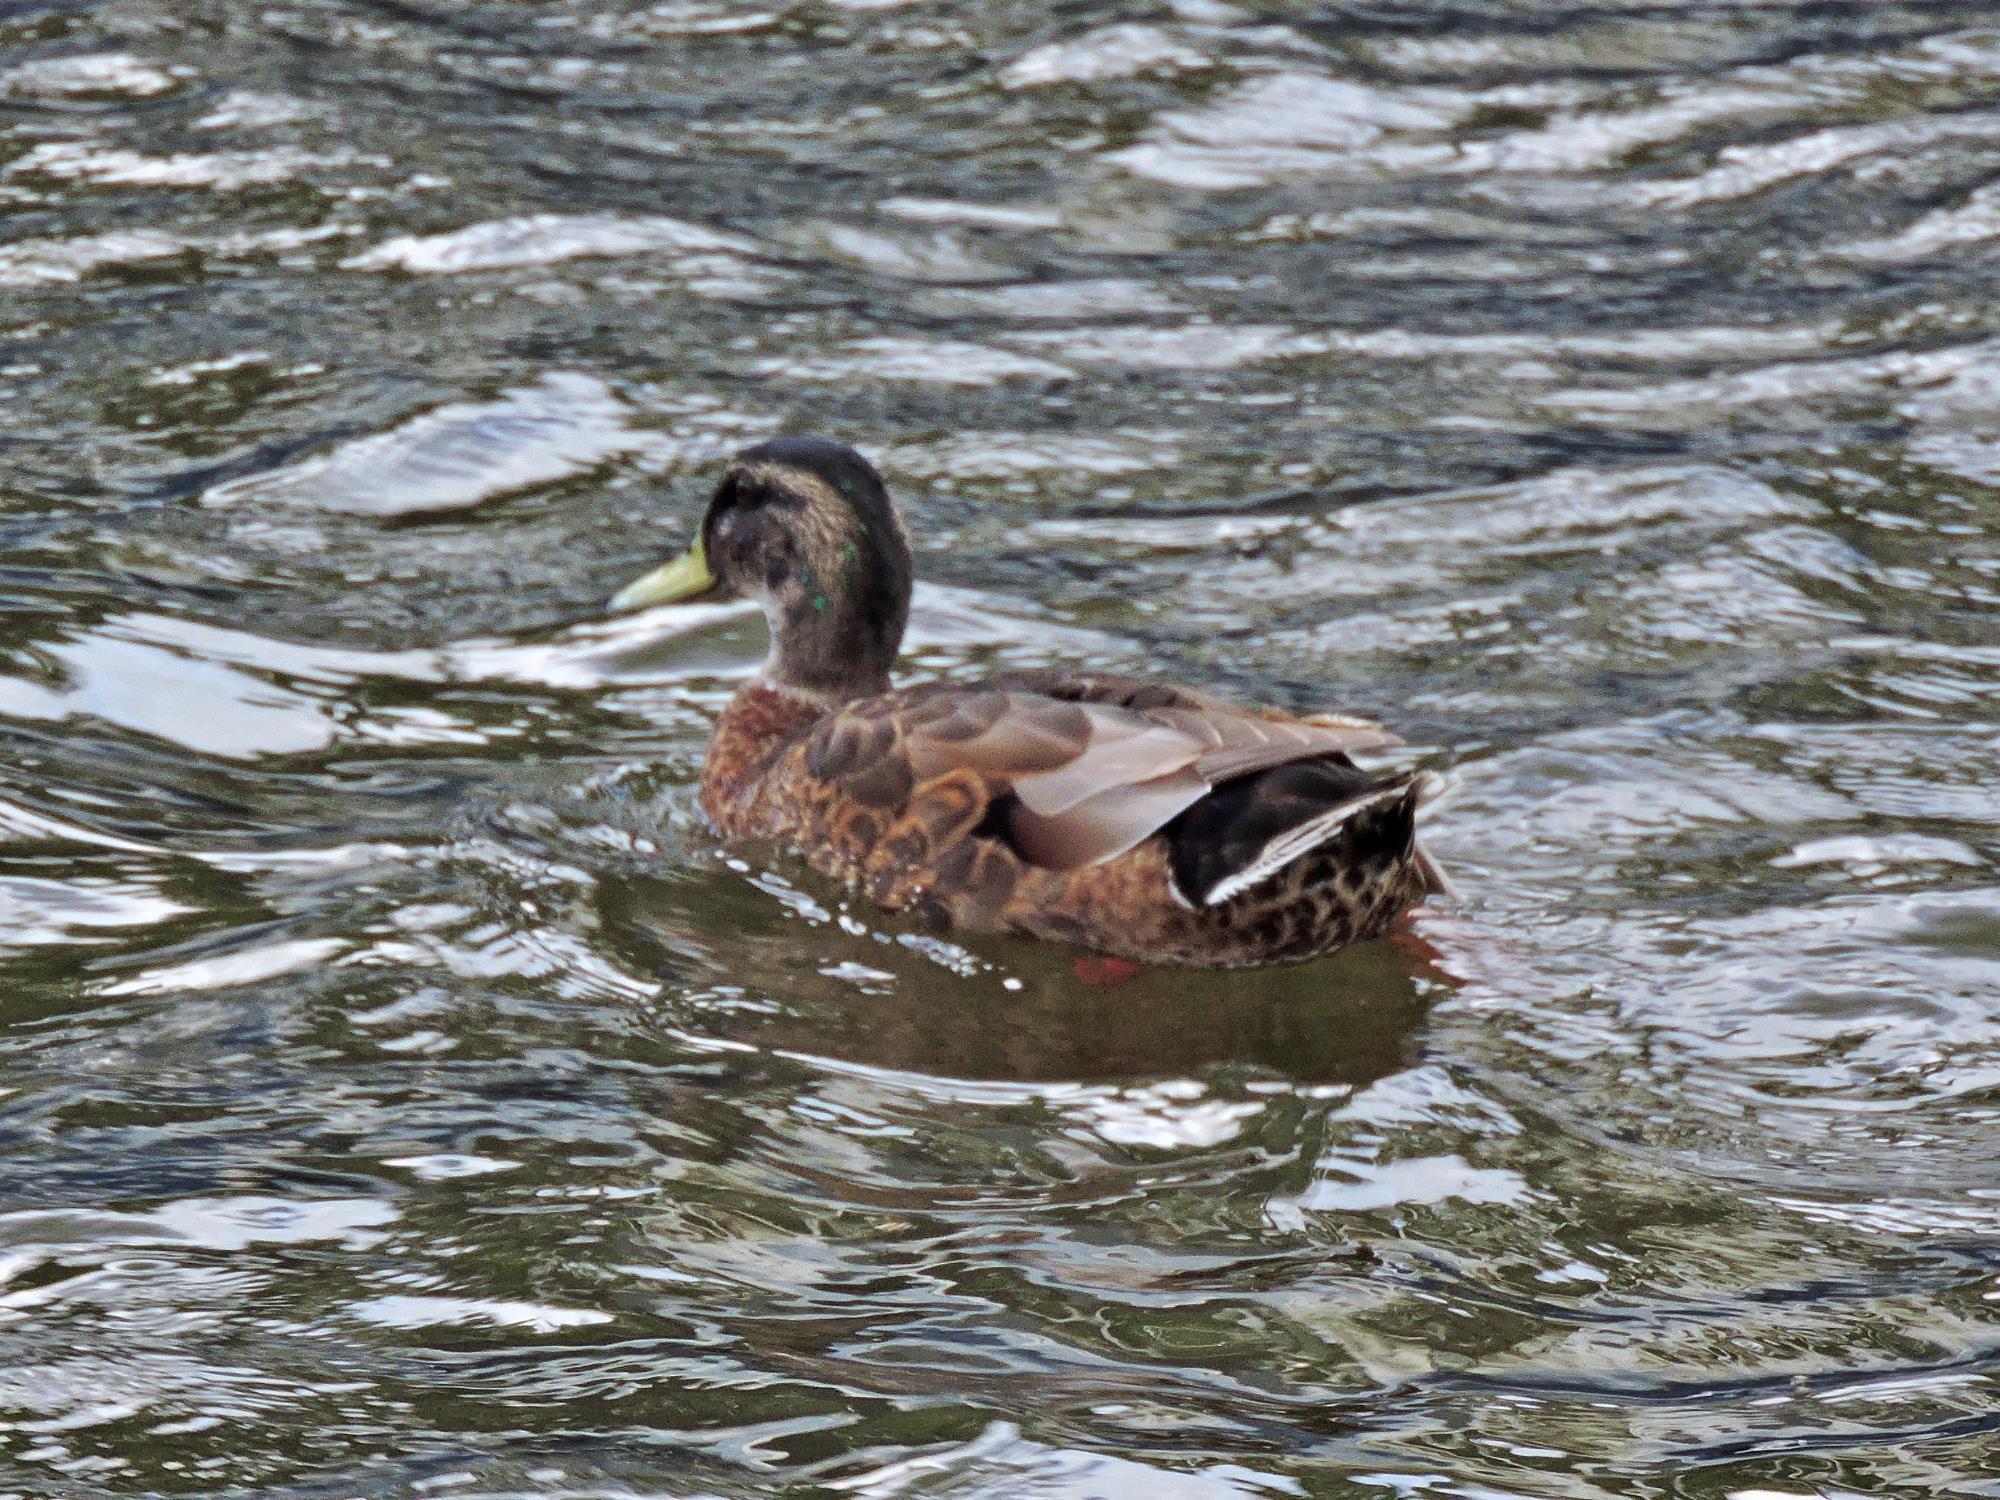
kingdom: Animalia
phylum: Chordata
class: Aves
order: Anseriformes
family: Anatidae
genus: Anas
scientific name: Anas platyrhynchos
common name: Mallard
